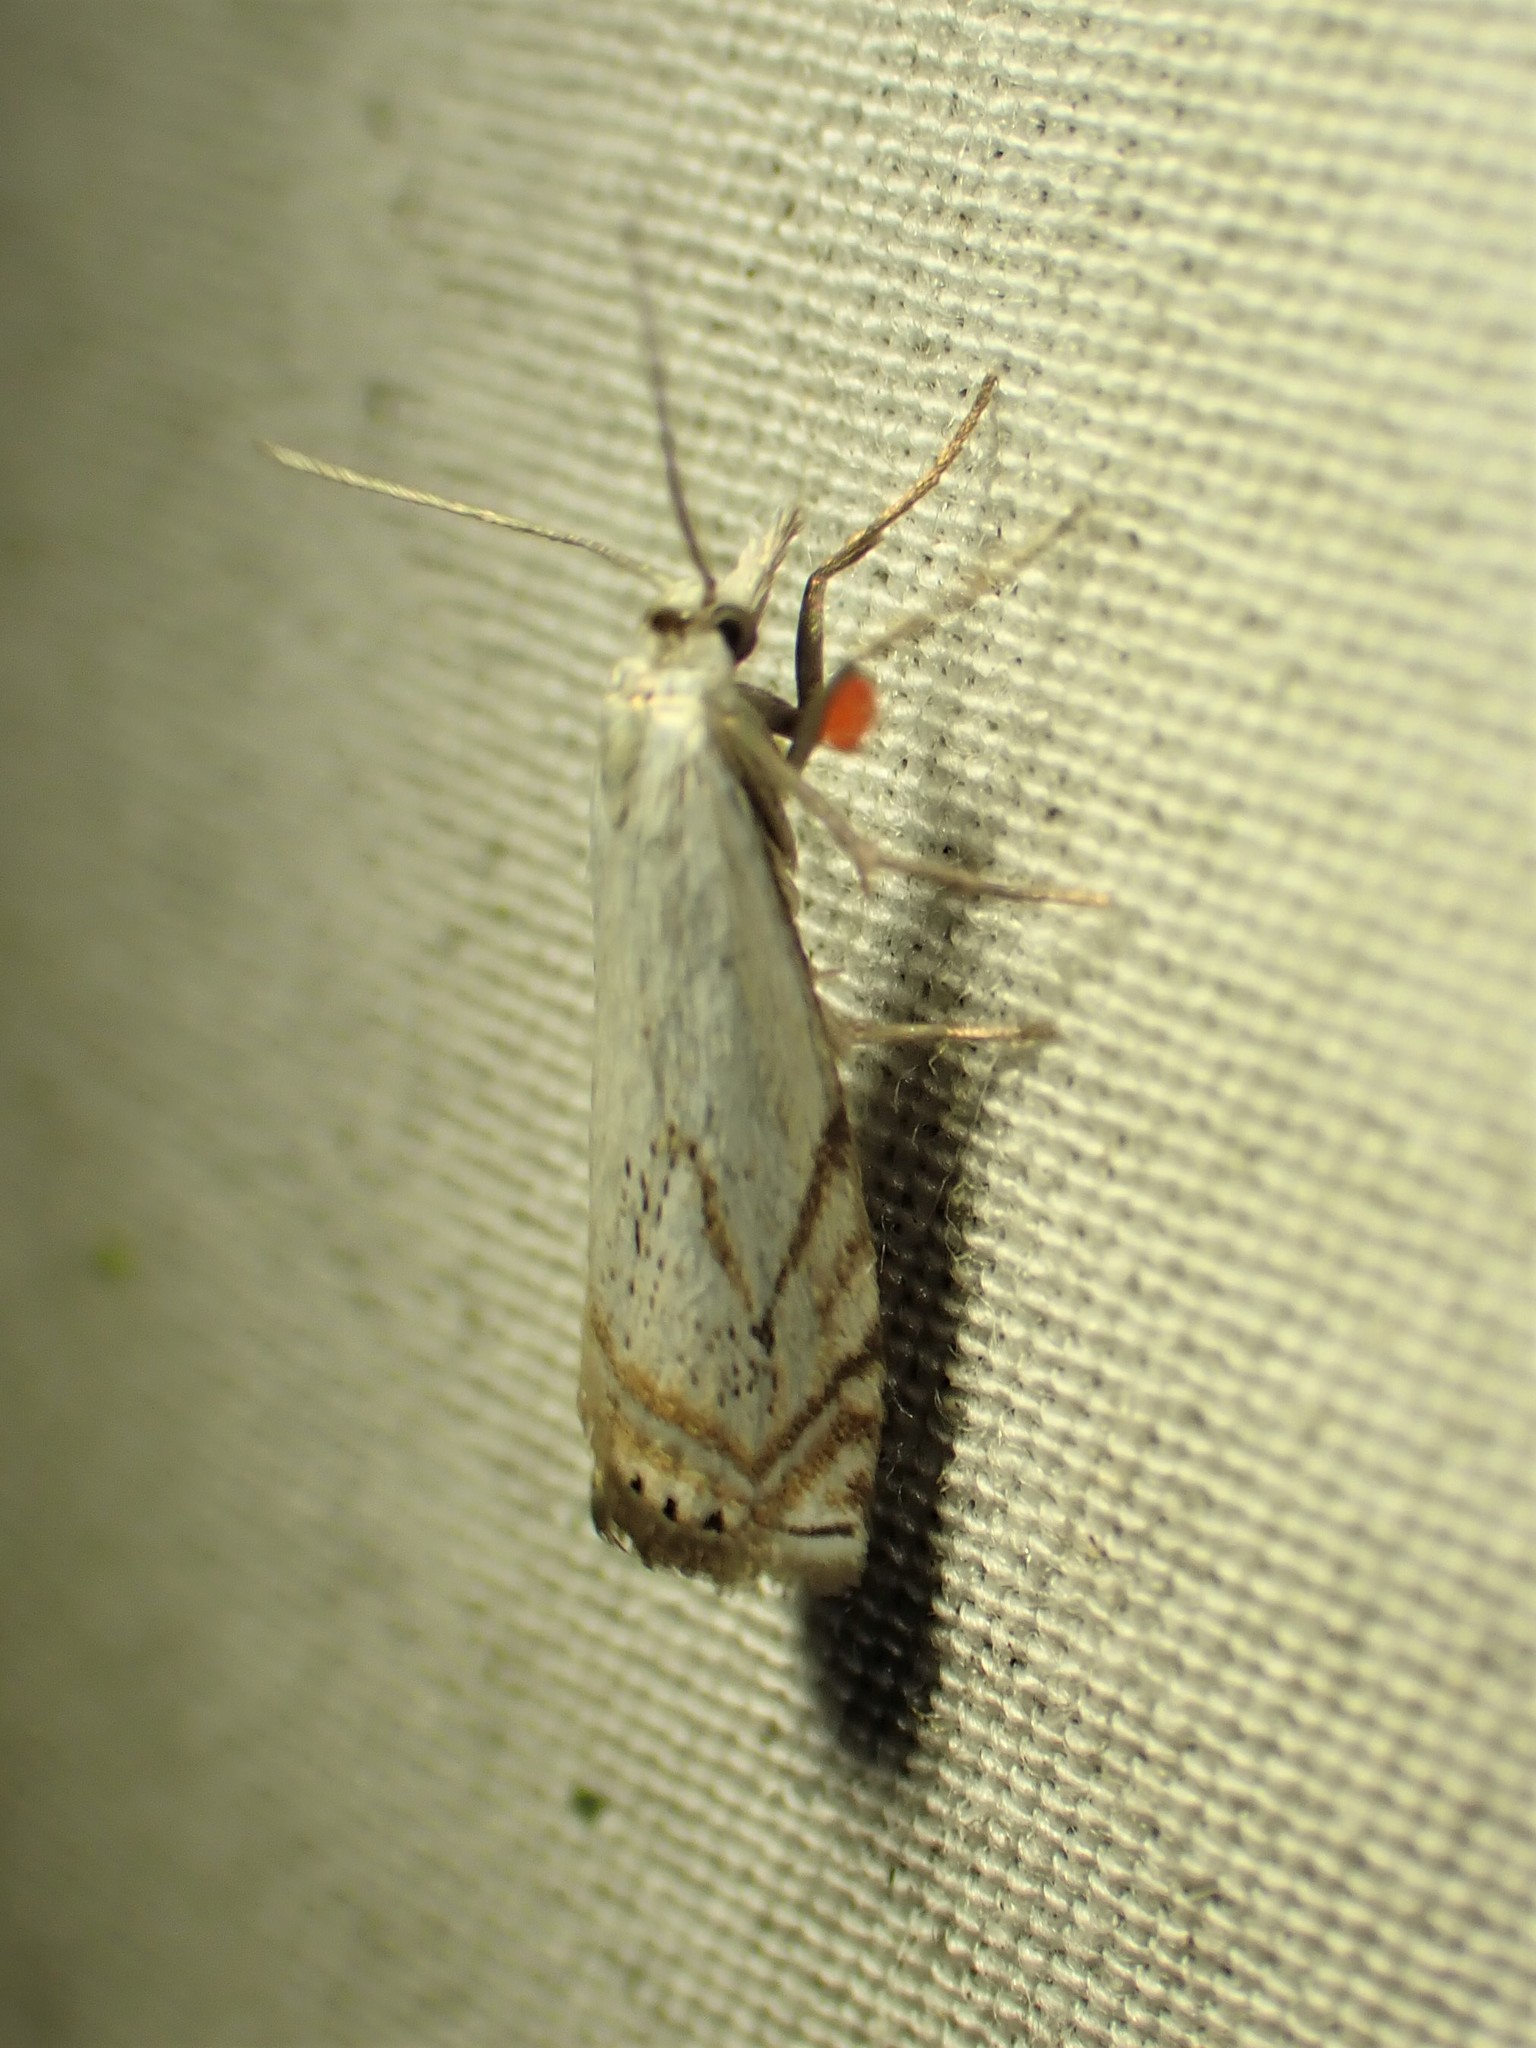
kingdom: Animalia
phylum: Arthropoda
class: Insecta
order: Lepidoptera
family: Crambidae
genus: Crambus
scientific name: Crambus albellus
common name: Small white grass-veneer
